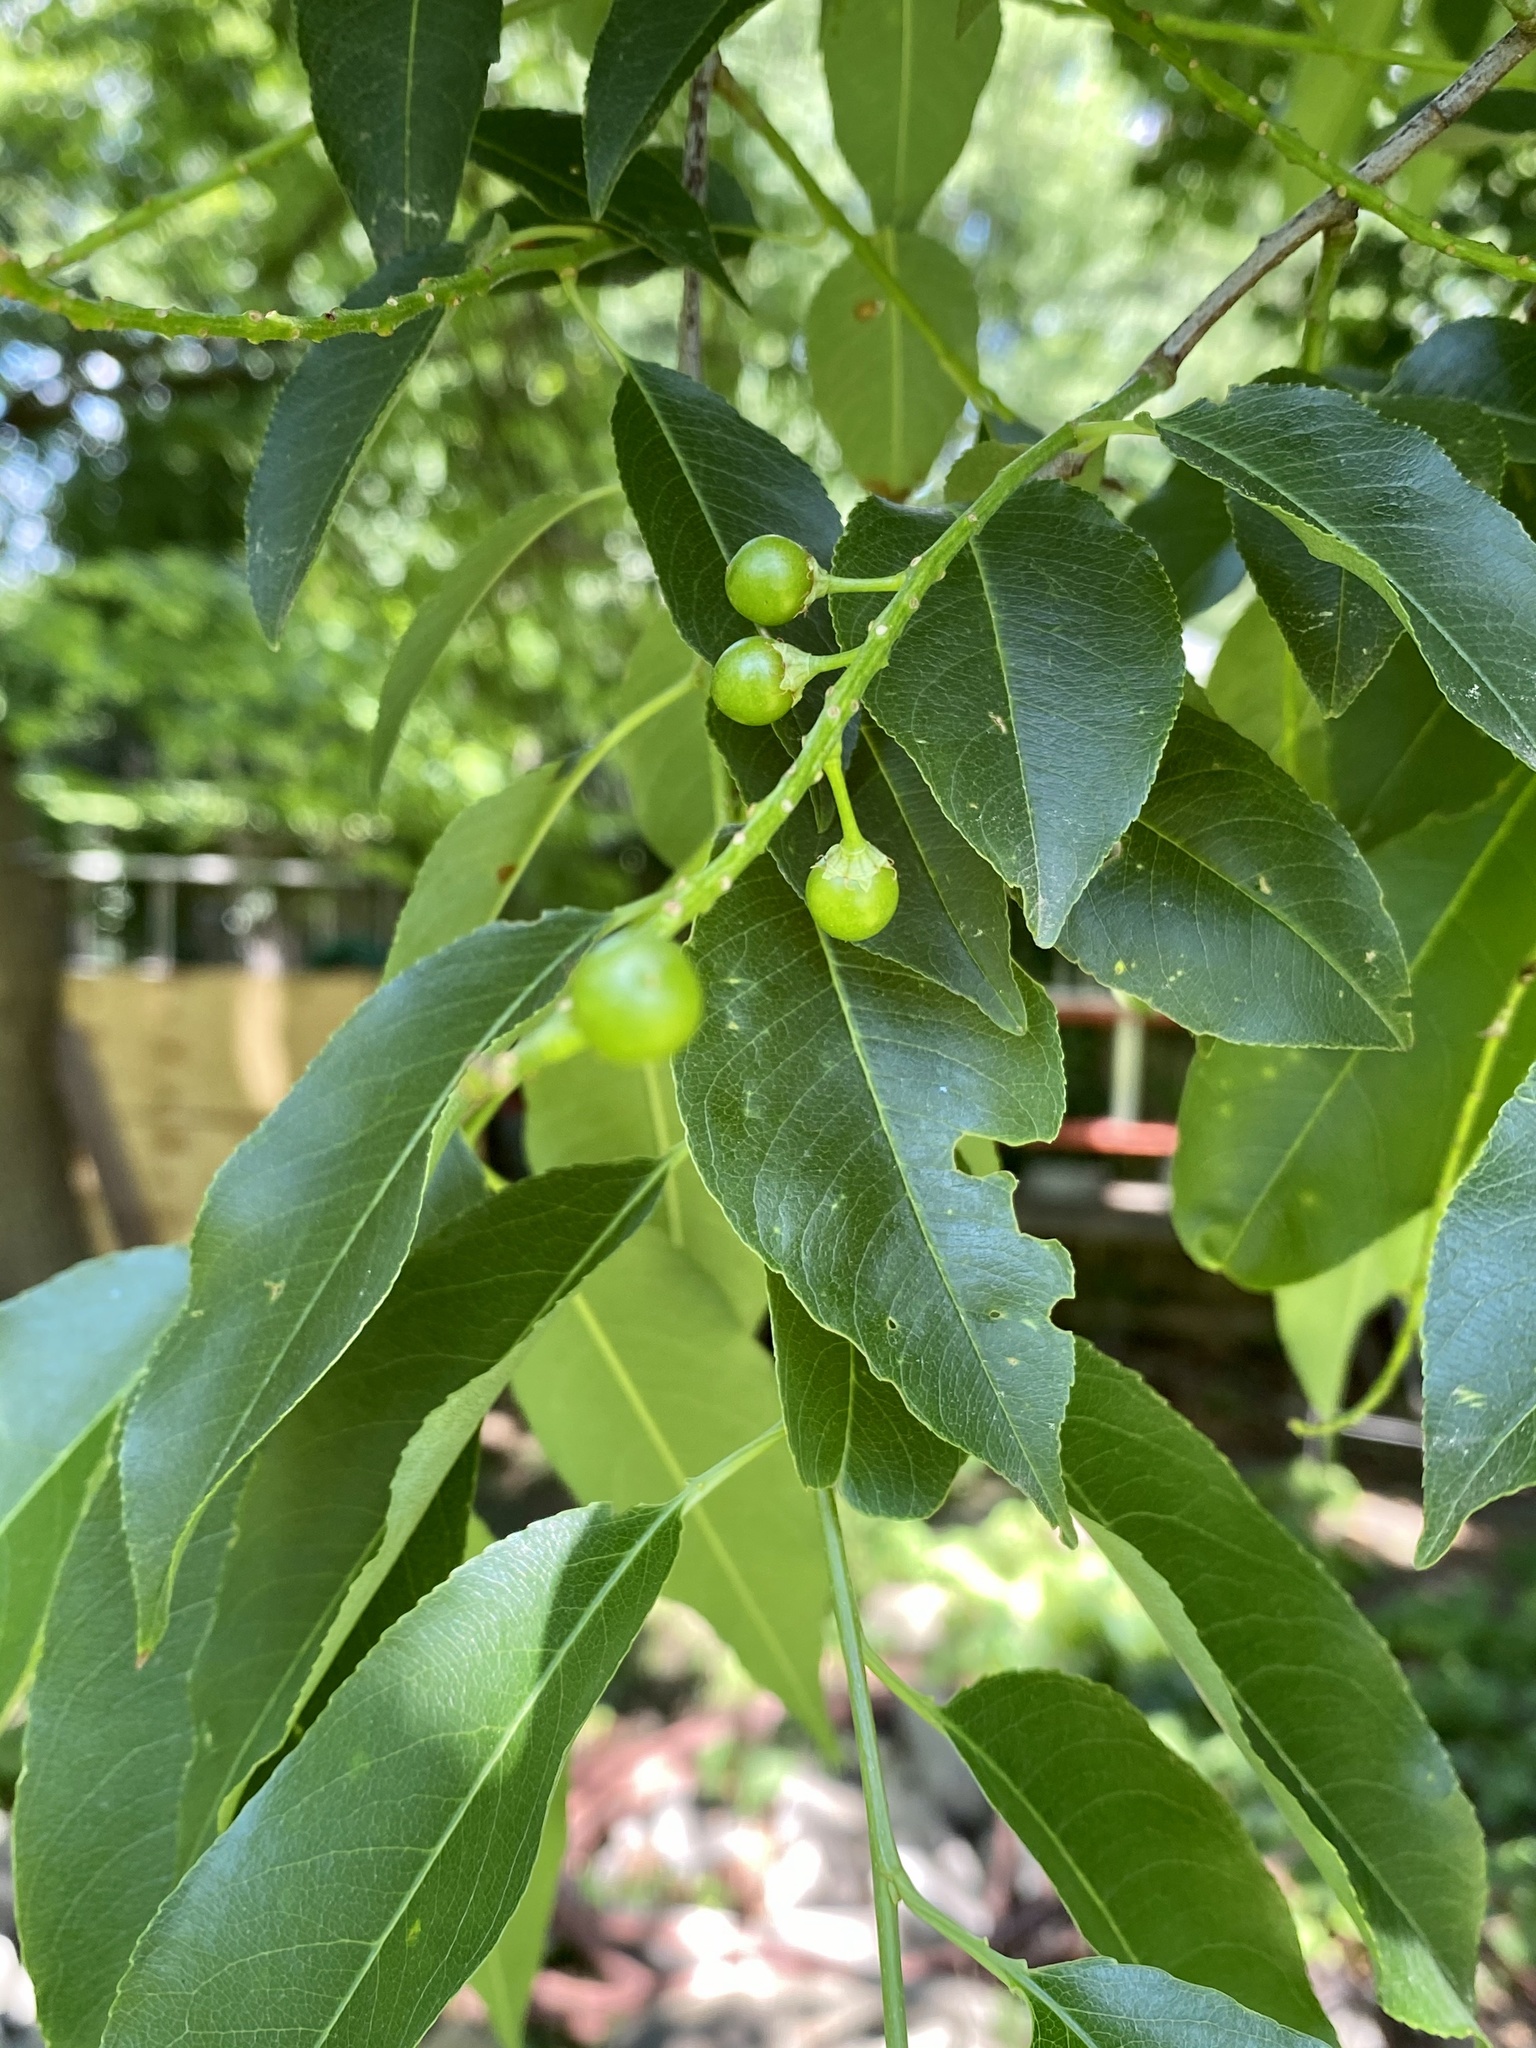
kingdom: Plantae
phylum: Tracheophyta
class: Magnoliopsida
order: Rosales
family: Rosaceae
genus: Prunus
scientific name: Prunus serotina
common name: Black cherry
